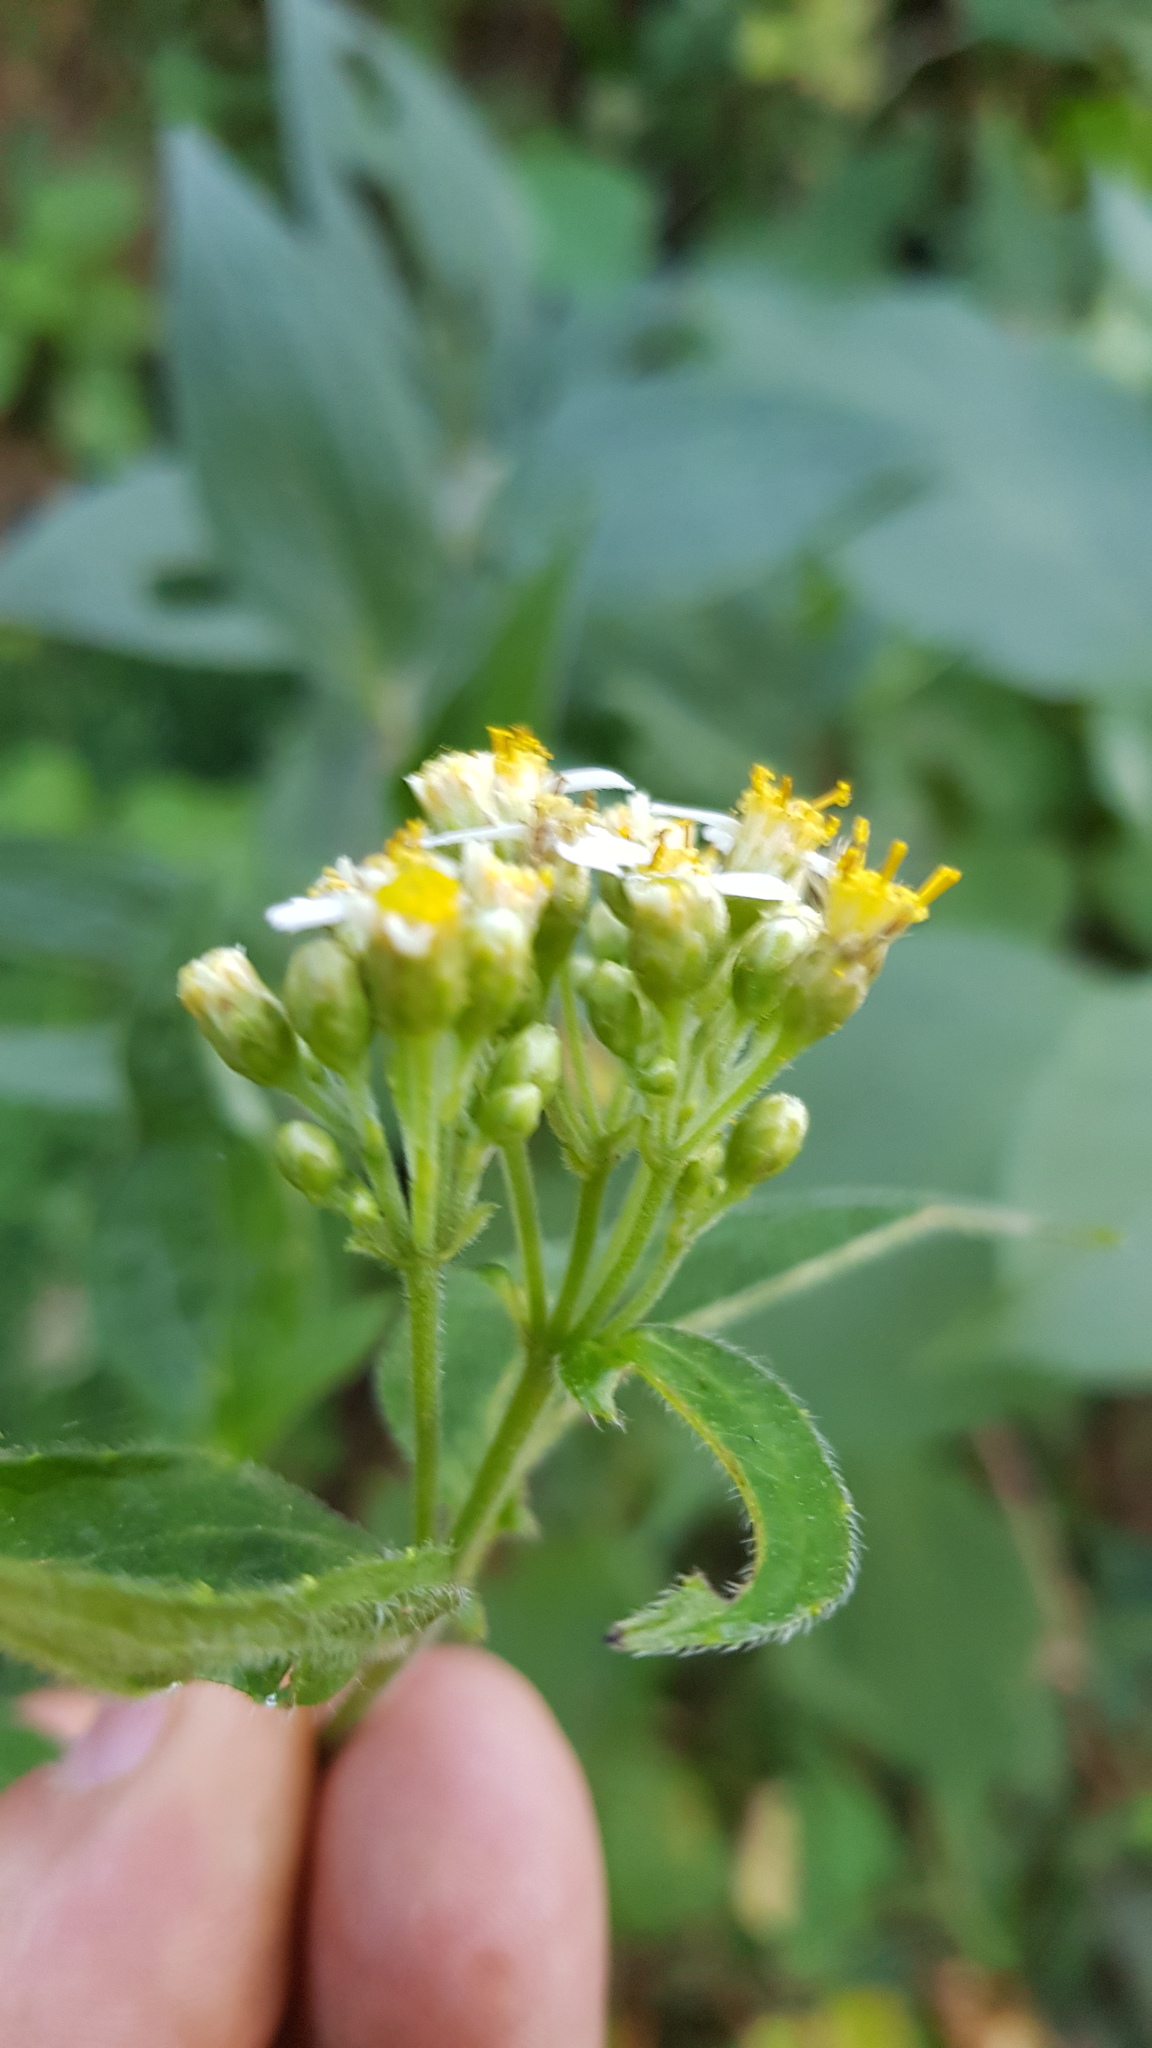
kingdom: Plantae
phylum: Tracheophyta
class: Magnoliopsida
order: Asterales
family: Asteraceae
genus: Alloispermum
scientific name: Alloispermum integrifolium
